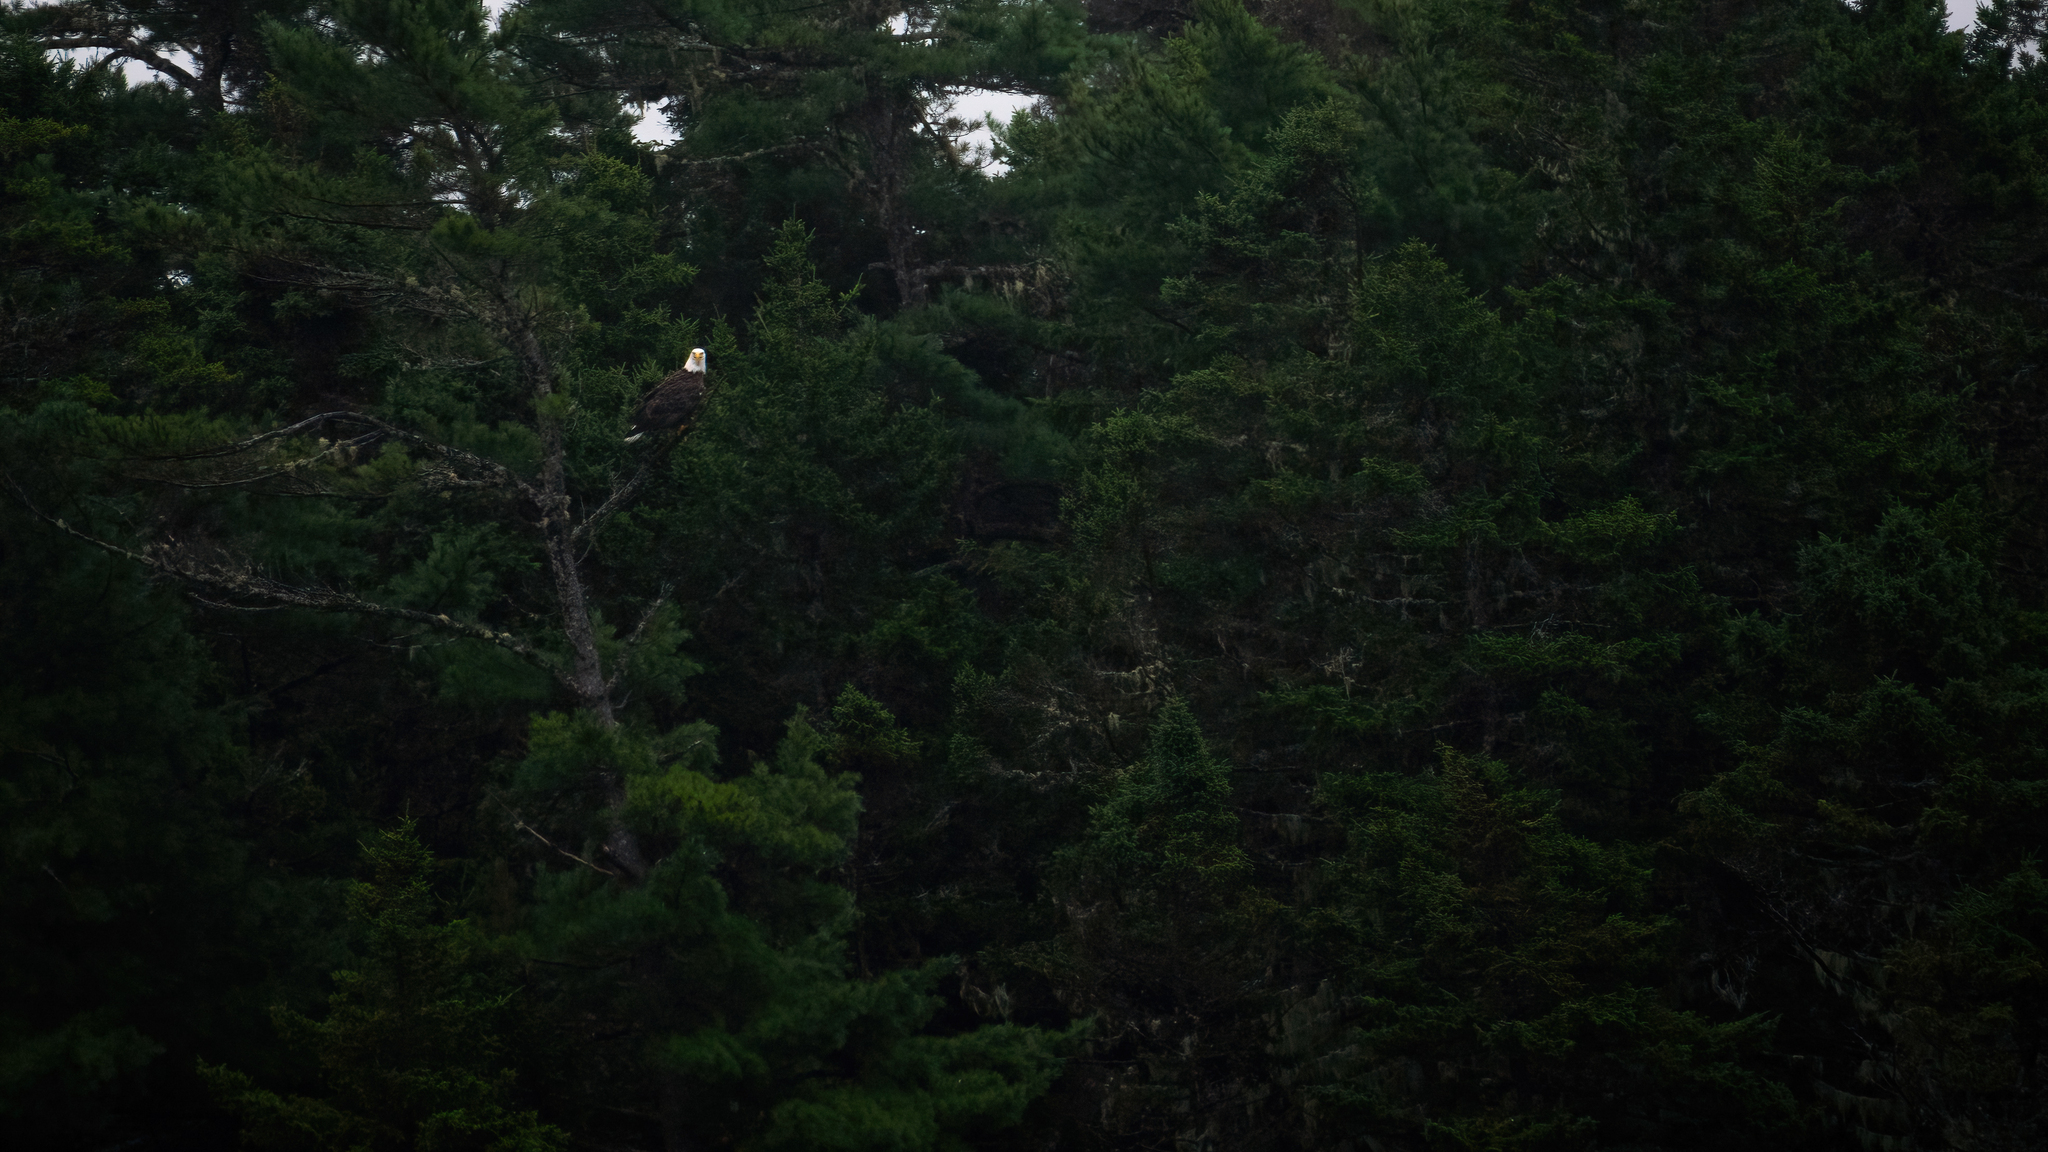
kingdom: Animalia
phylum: Chordata
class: Aves
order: Accipitriformes
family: Accipitridae
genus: Haliaeetus
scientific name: Haliaeetus leucocephalus
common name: Bald eagle
